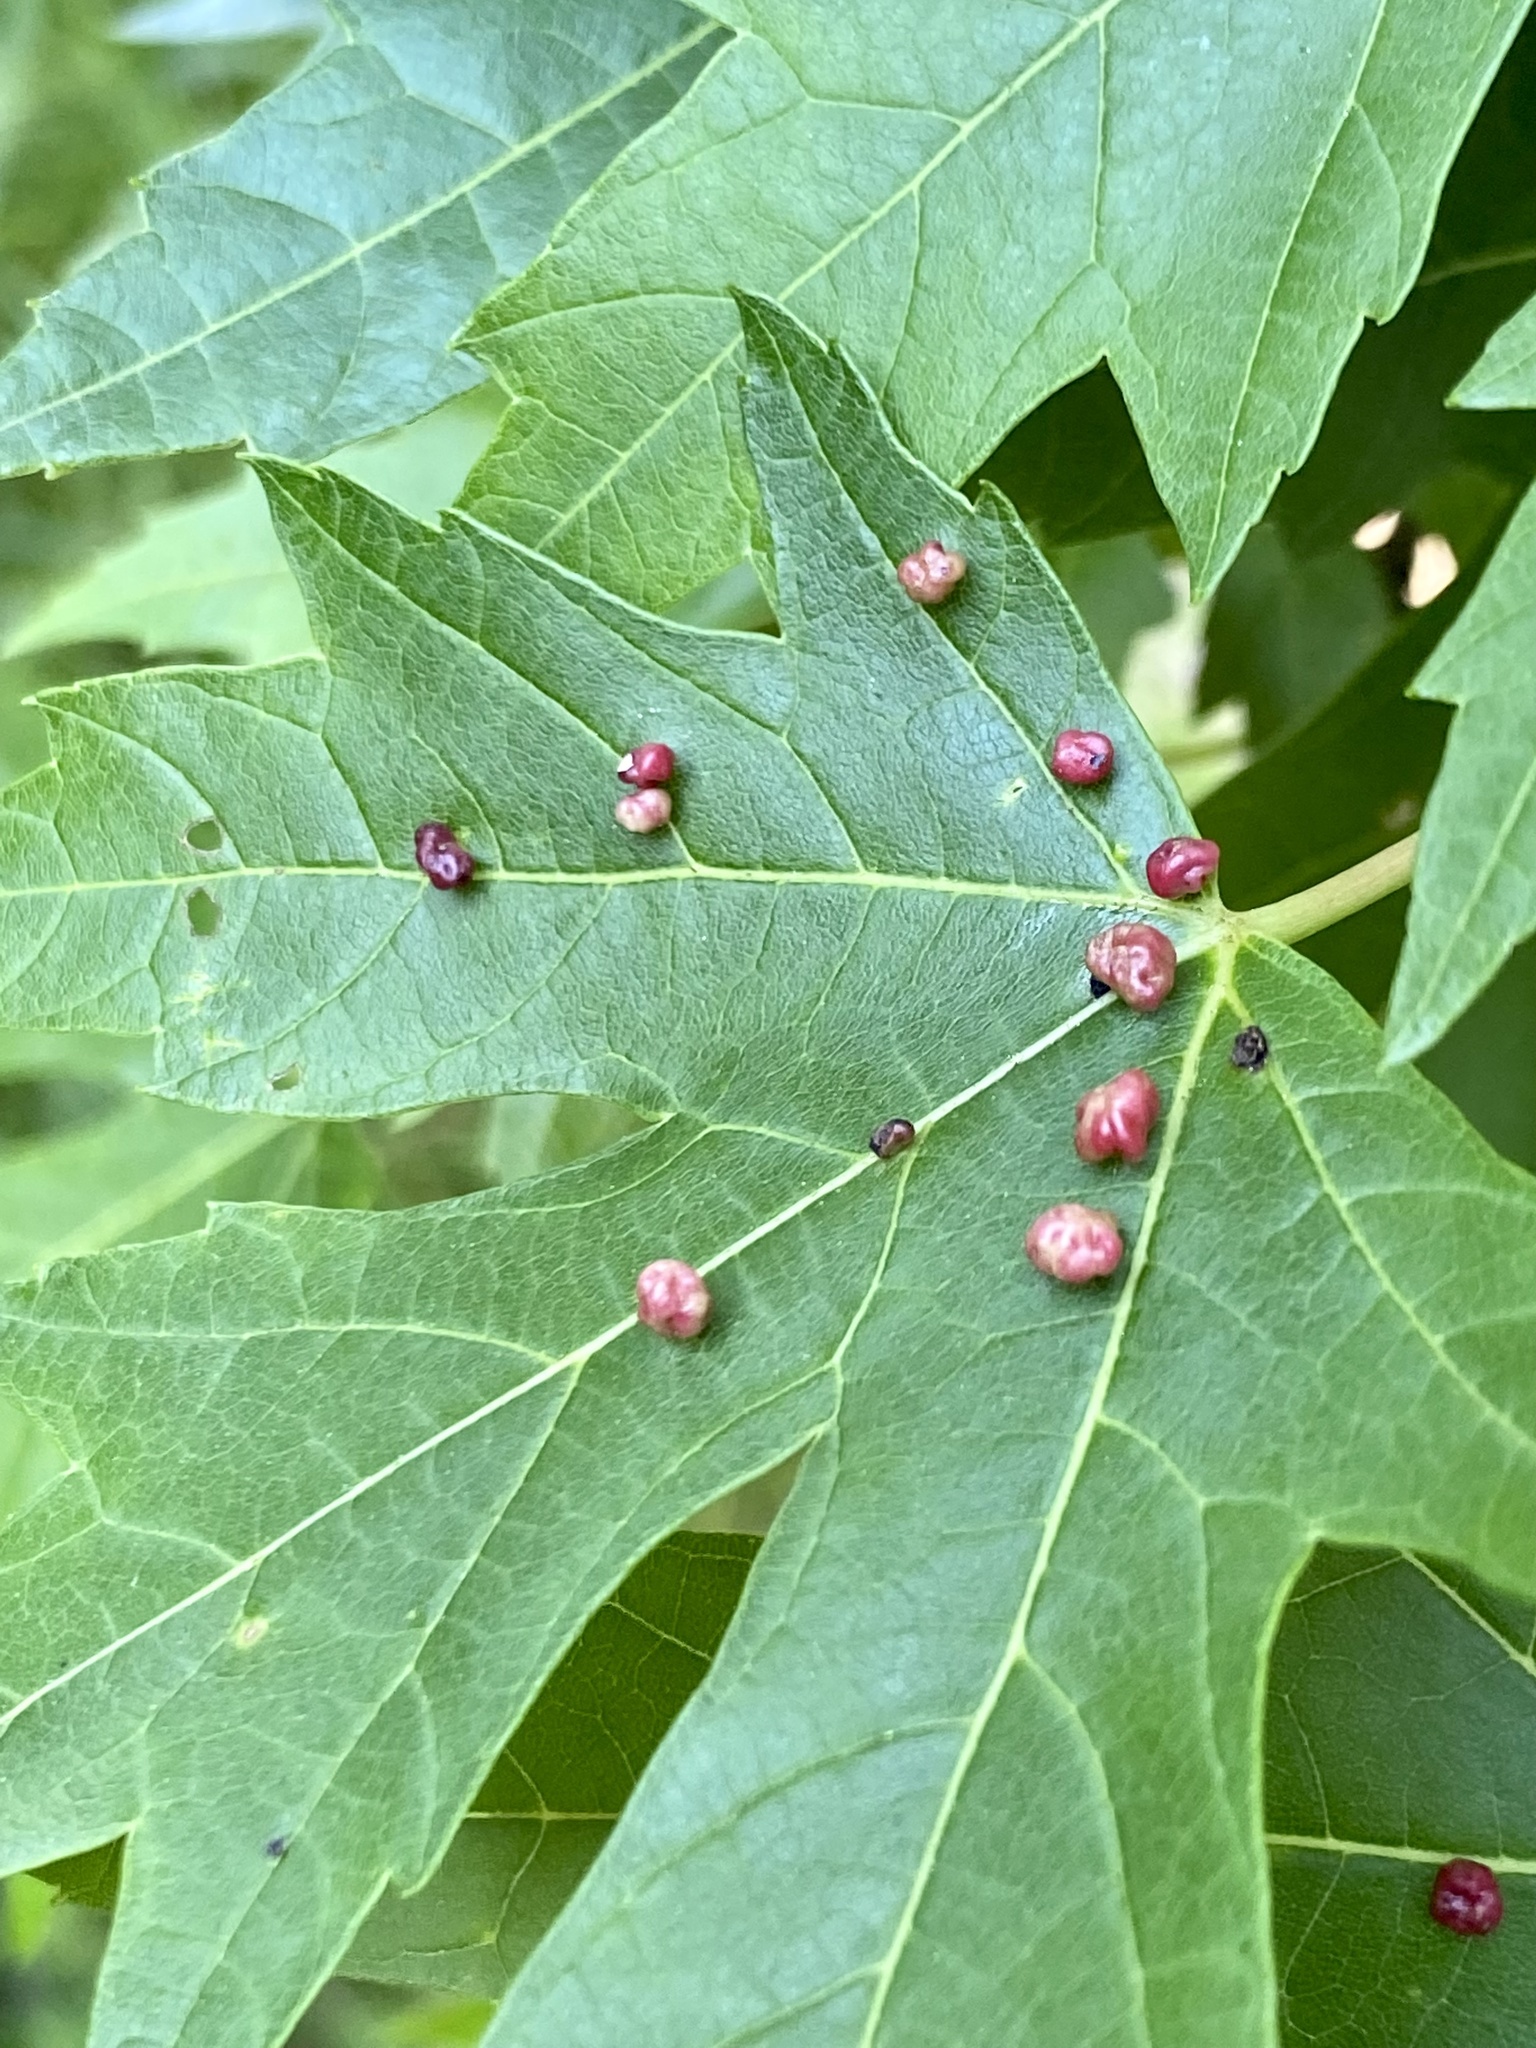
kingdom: Animalia
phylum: Arthropoda
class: Arachnida
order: Trombidiformes
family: Eriophyidae
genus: Vasates
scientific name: Vasates quadripedes
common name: Maple bladder gall mite
